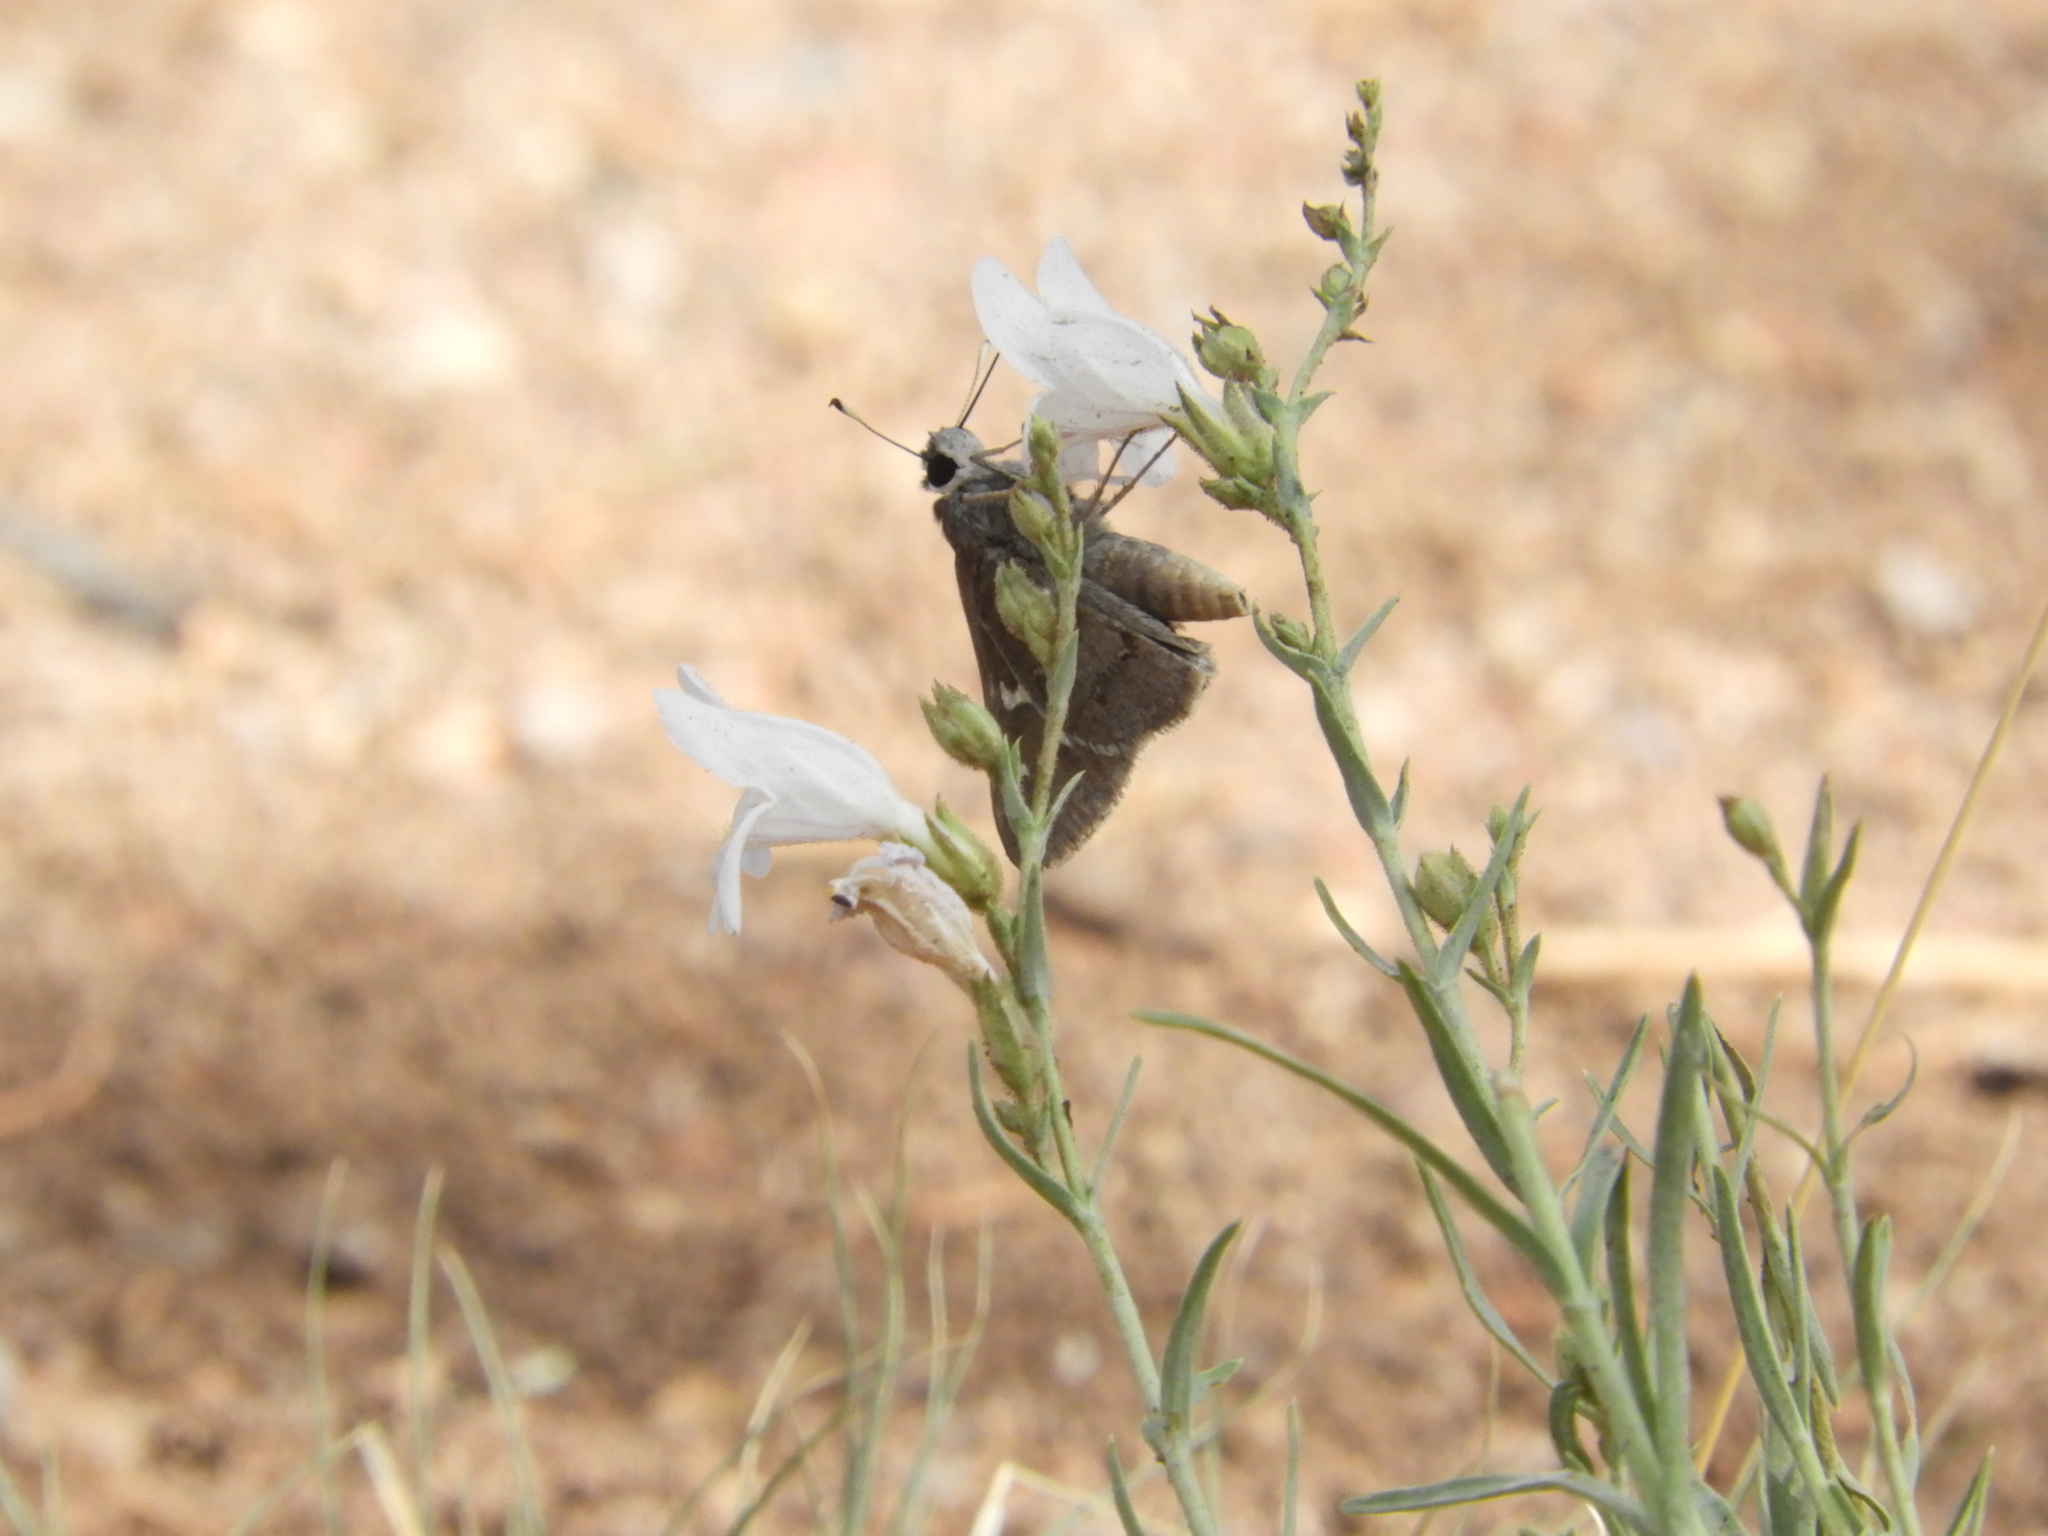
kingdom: Animalia
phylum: Arthropoda
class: Insecta
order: Lepidoptera
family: Hesperiidae
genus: Atrytonopsis
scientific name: Atrytonopsis vierecki
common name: Viereck's skipper
